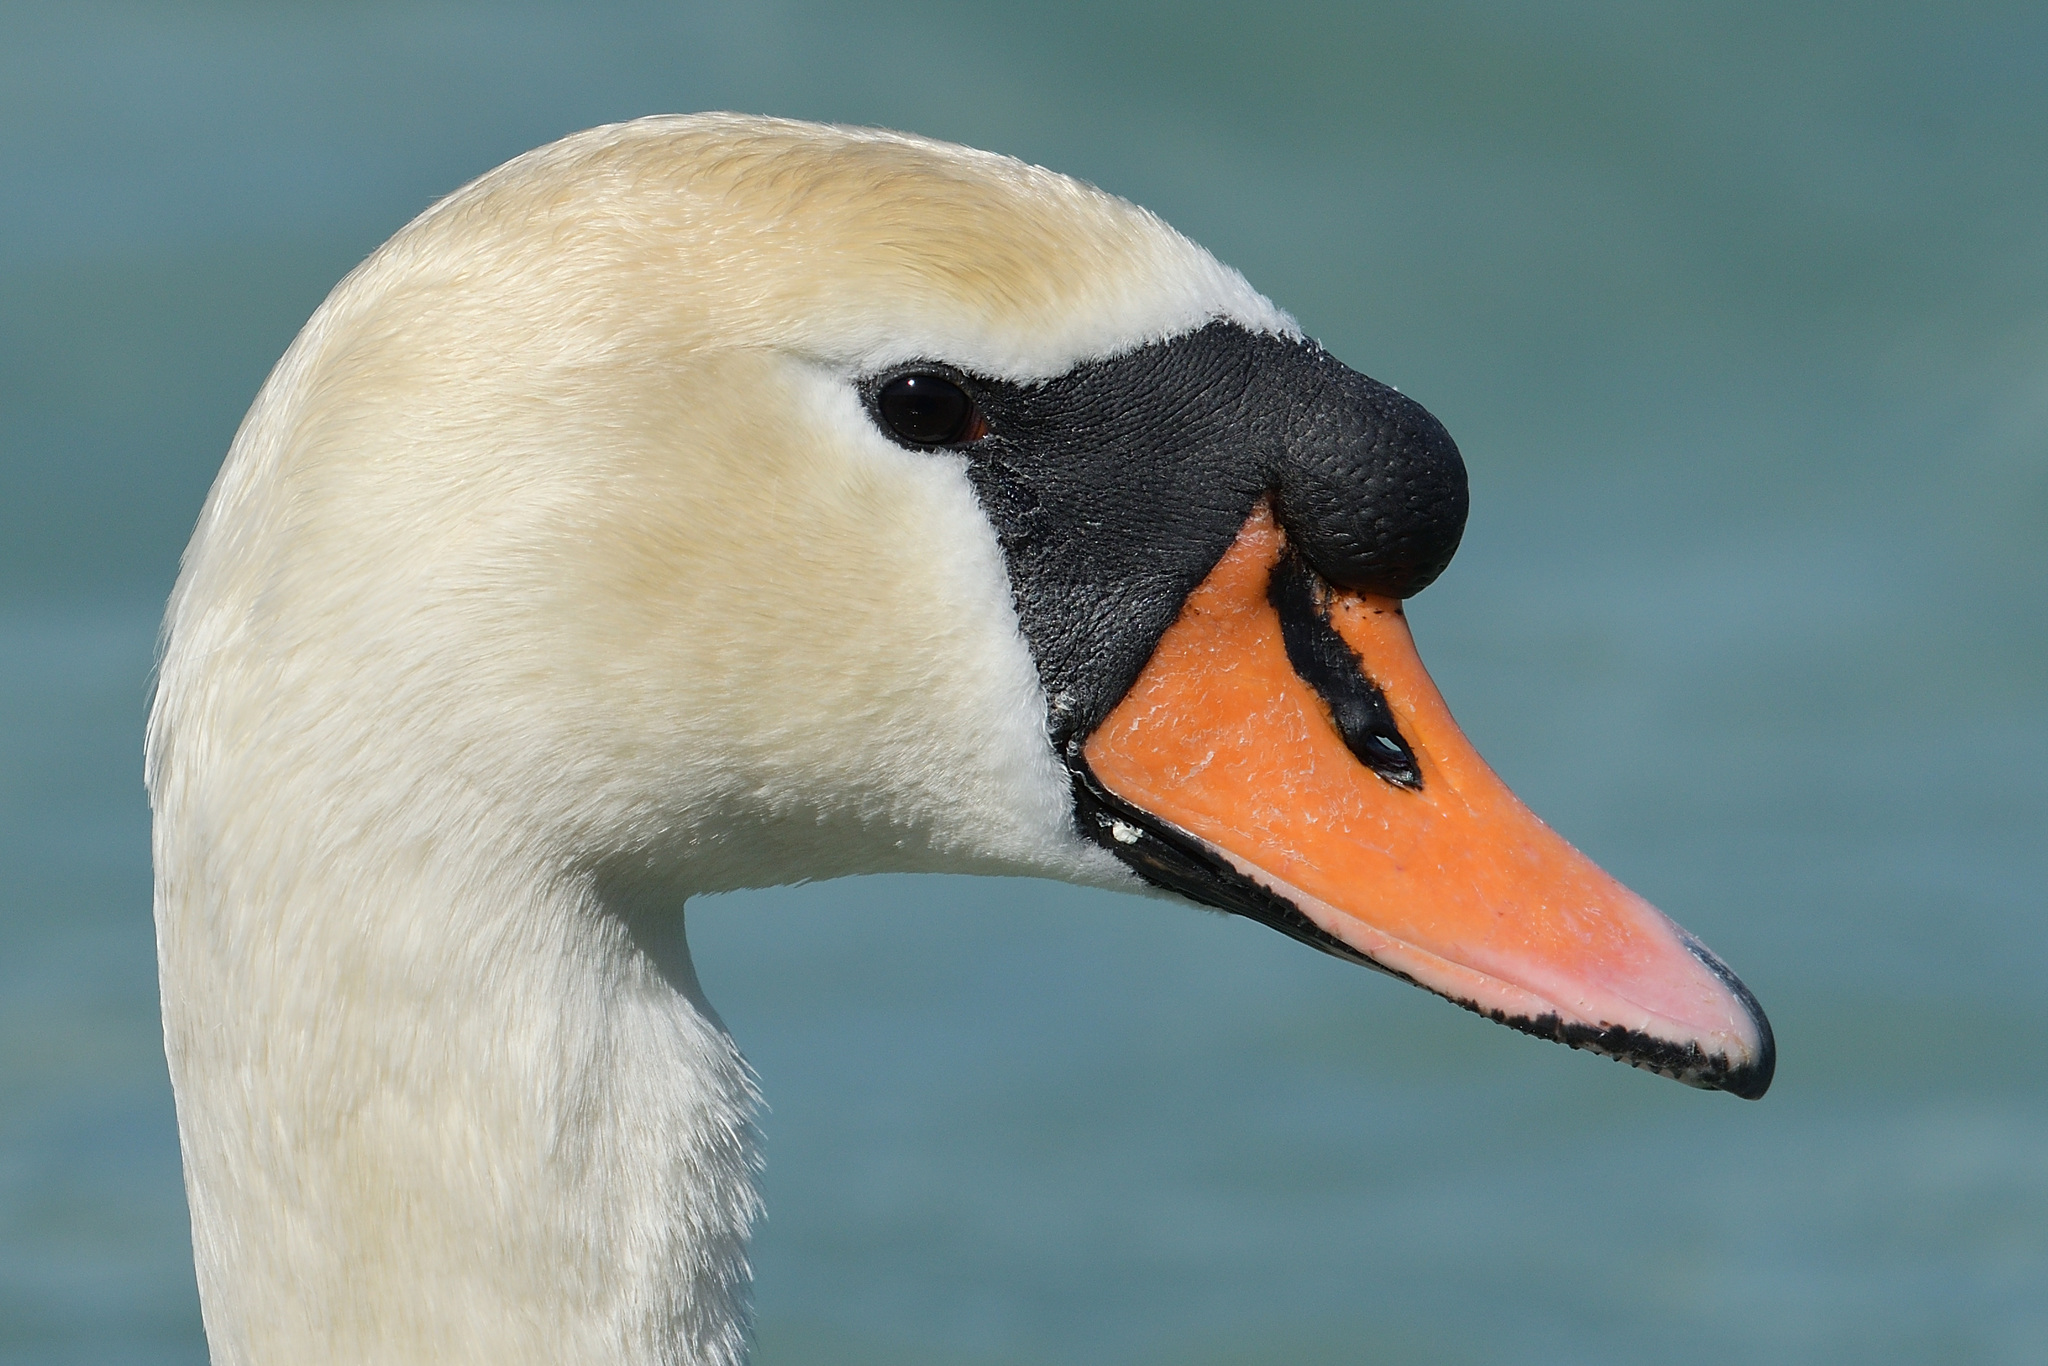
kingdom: Animalia
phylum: Chordata
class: Aves
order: Anseriformes
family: Anatidae
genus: Cygnus
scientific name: Cygnus olor
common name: Mute swan
